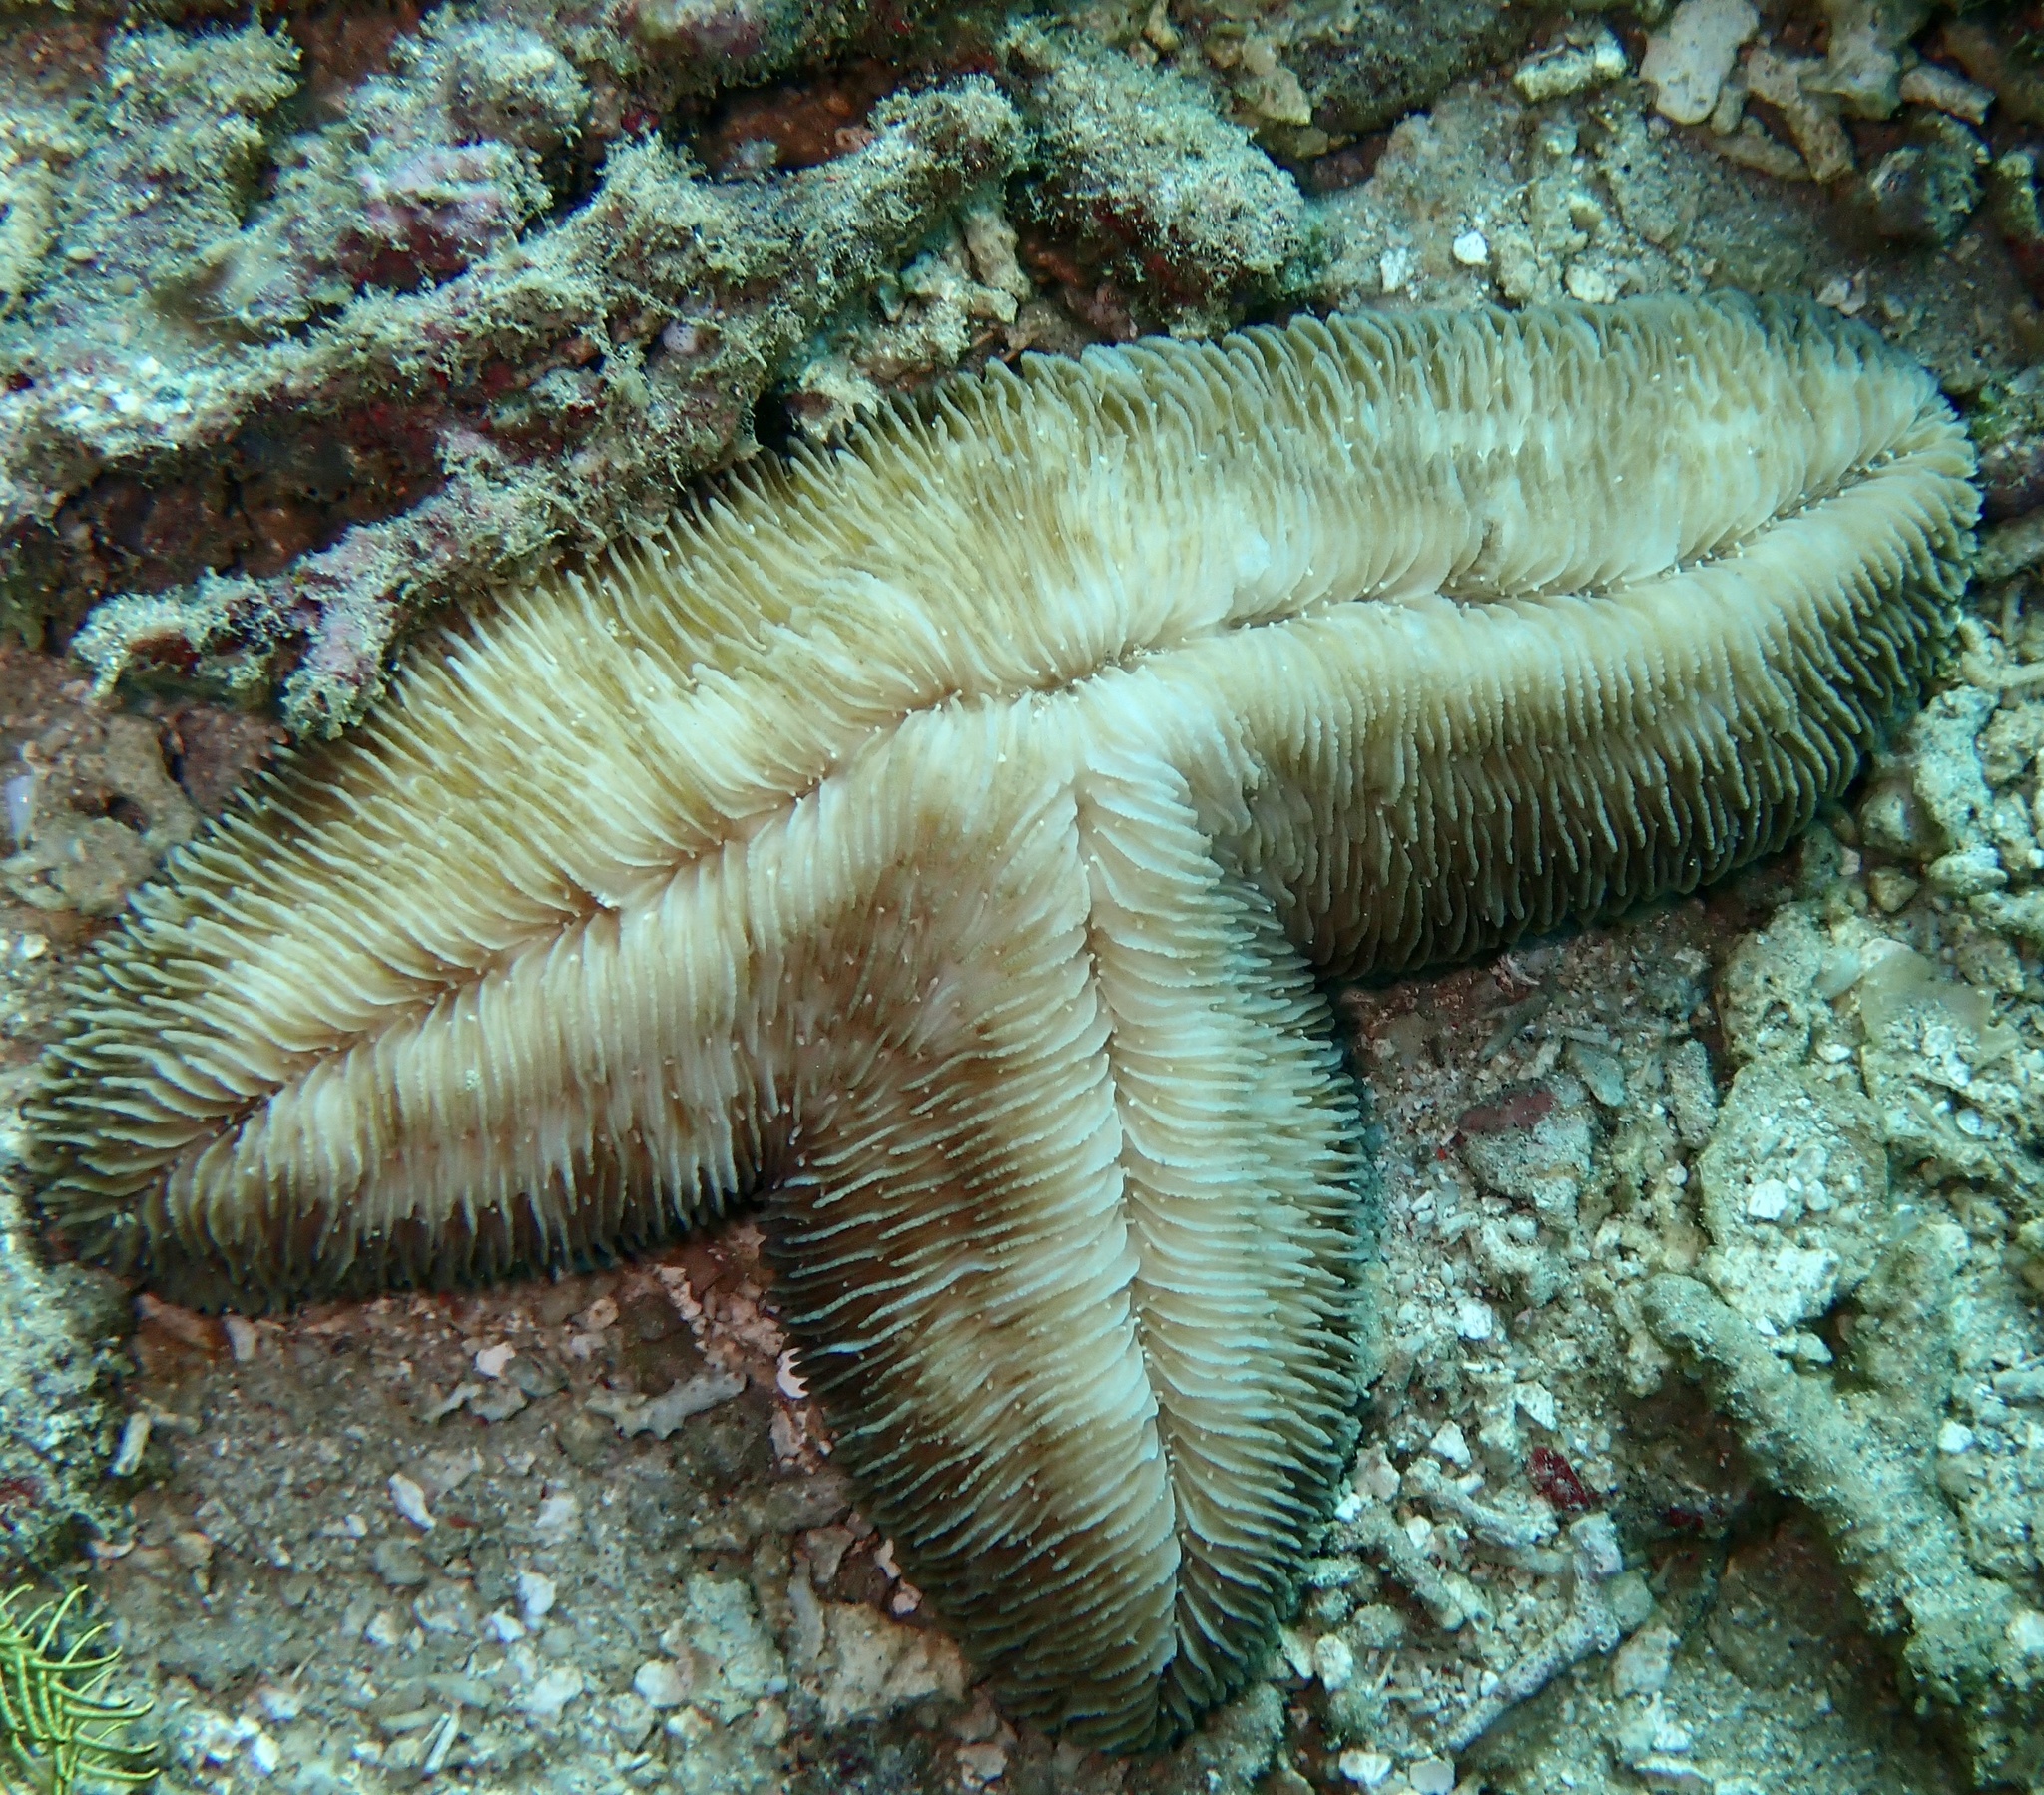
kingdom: Animalia
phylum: Cnidaria
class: Anthozoa
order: Scleractinia
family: Fungiidae
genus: Herpolitha
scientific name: Herpolitha limax
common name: Striate boomerang coral
